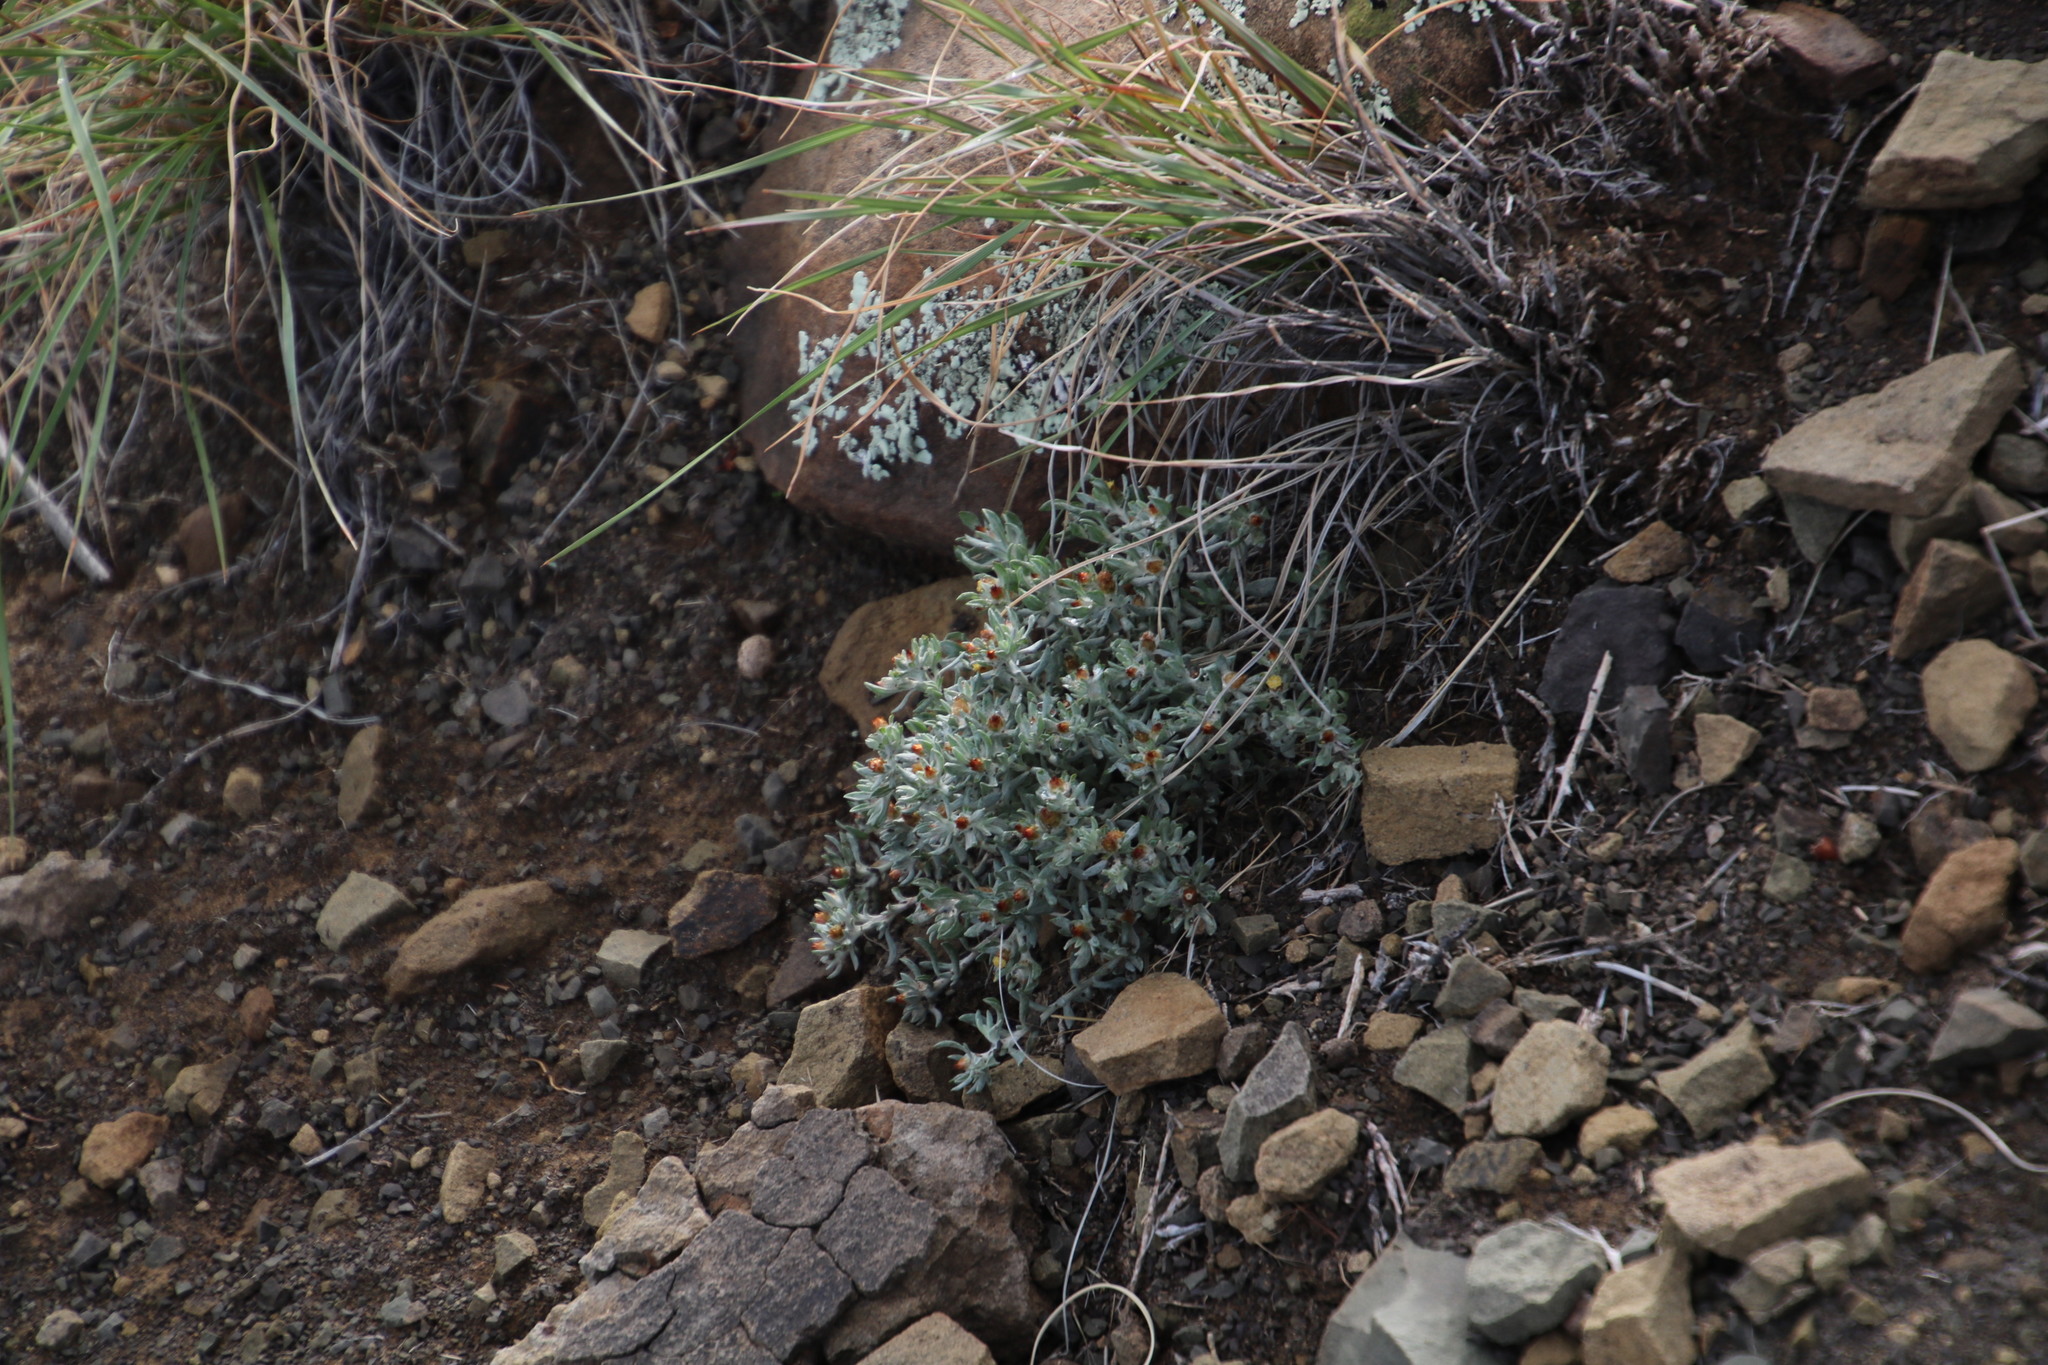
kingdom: Plantae
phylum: Tracheophyta
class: Magnoliopsida
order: Asterales
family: Asteraceae
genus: Helichrysum
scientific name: Helichrysum pumilio
